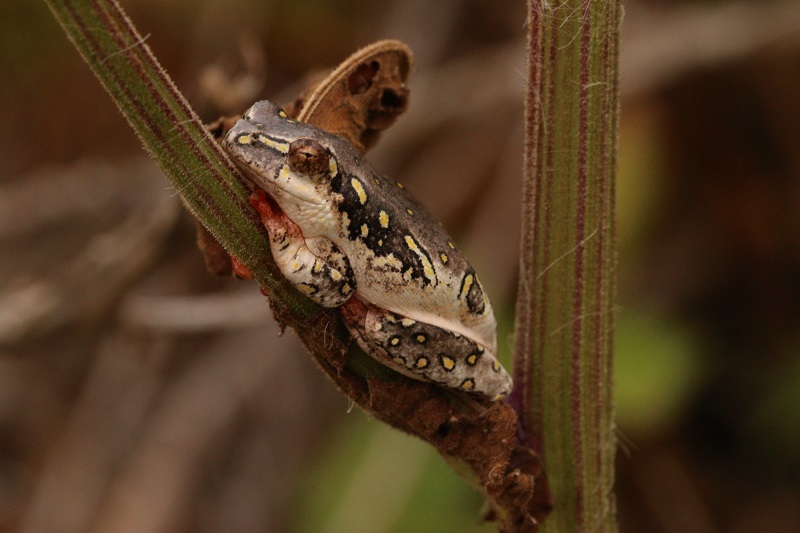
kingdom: Animalia
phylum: Chordata
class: Amphibia
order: Anura
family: Hyperoliidae
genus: Hyperolius
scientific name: Hyperolius marmoratus
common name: Painted reed frog
